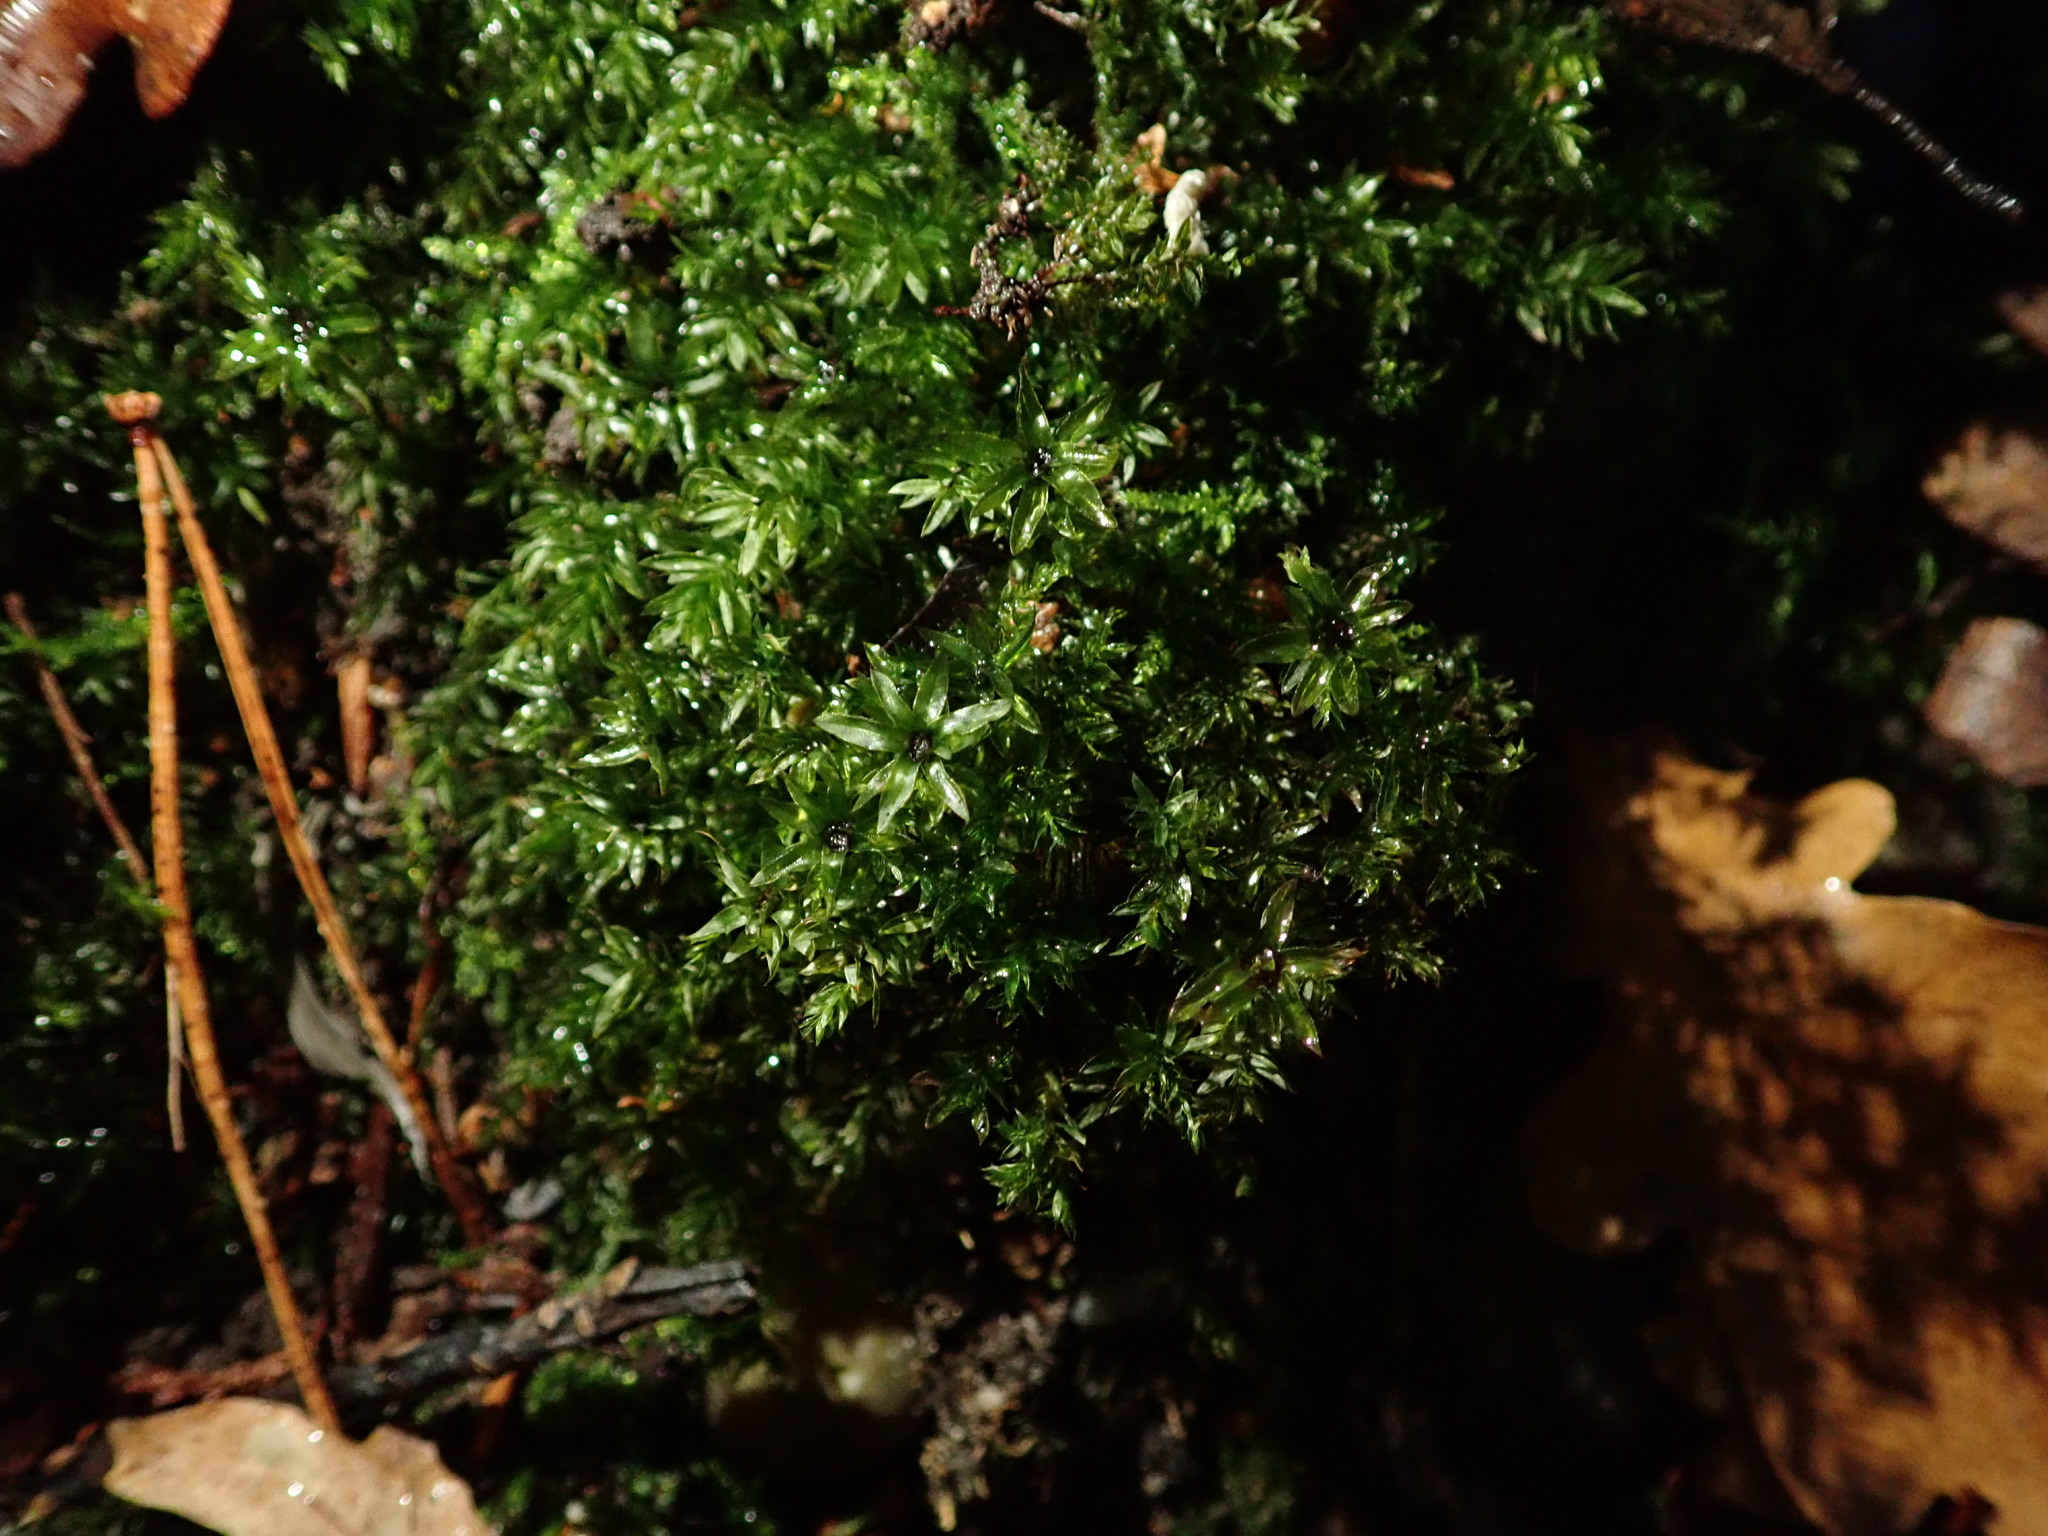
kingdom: Plantae
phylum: Bryophyta
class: Bryopsida
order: Bryales
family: Mniaceae
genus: Mnium
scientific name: Mnium hornum
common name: Swan's-neck leafy moss
